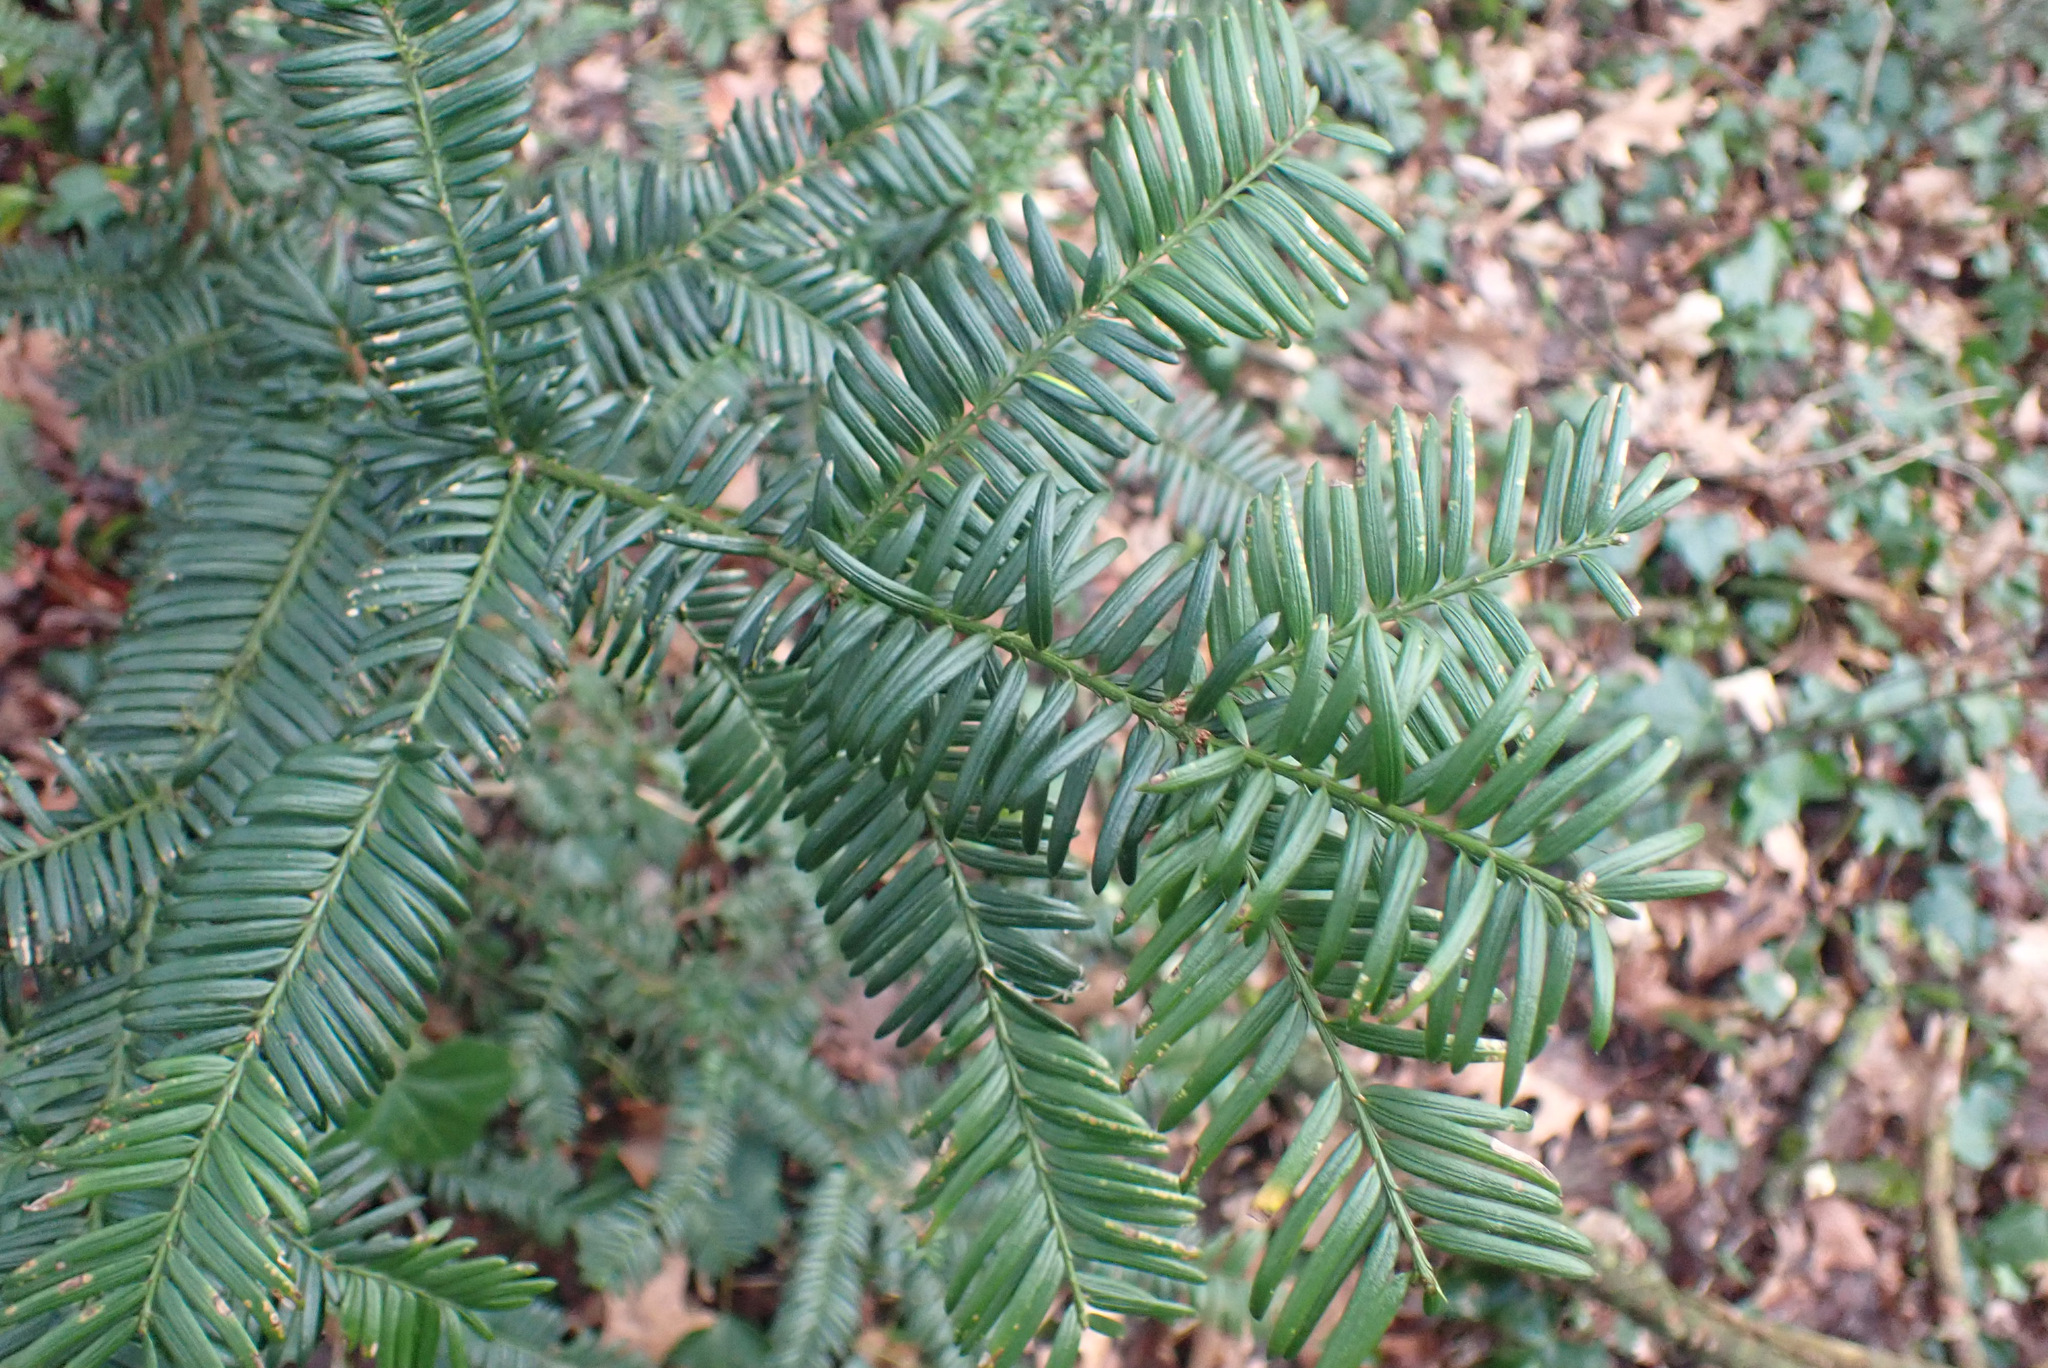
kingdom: Plantae
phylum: Tracheophyta
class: Pinopsida
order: Pinales
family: Taxaceae
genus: Taxus
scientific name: Taxus baccata
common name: Yew
